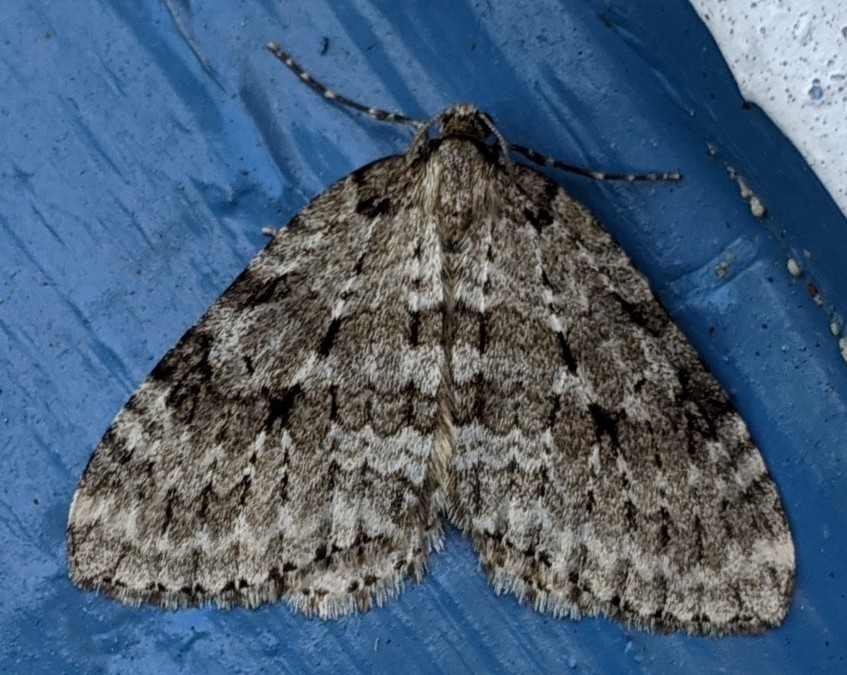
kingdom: Animalia
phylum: Arthropoda
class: Insecta
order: Lepidoptera
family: Geometridae
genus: Epirrita
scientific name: Epirrita autumnata
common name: Autumnal moth
